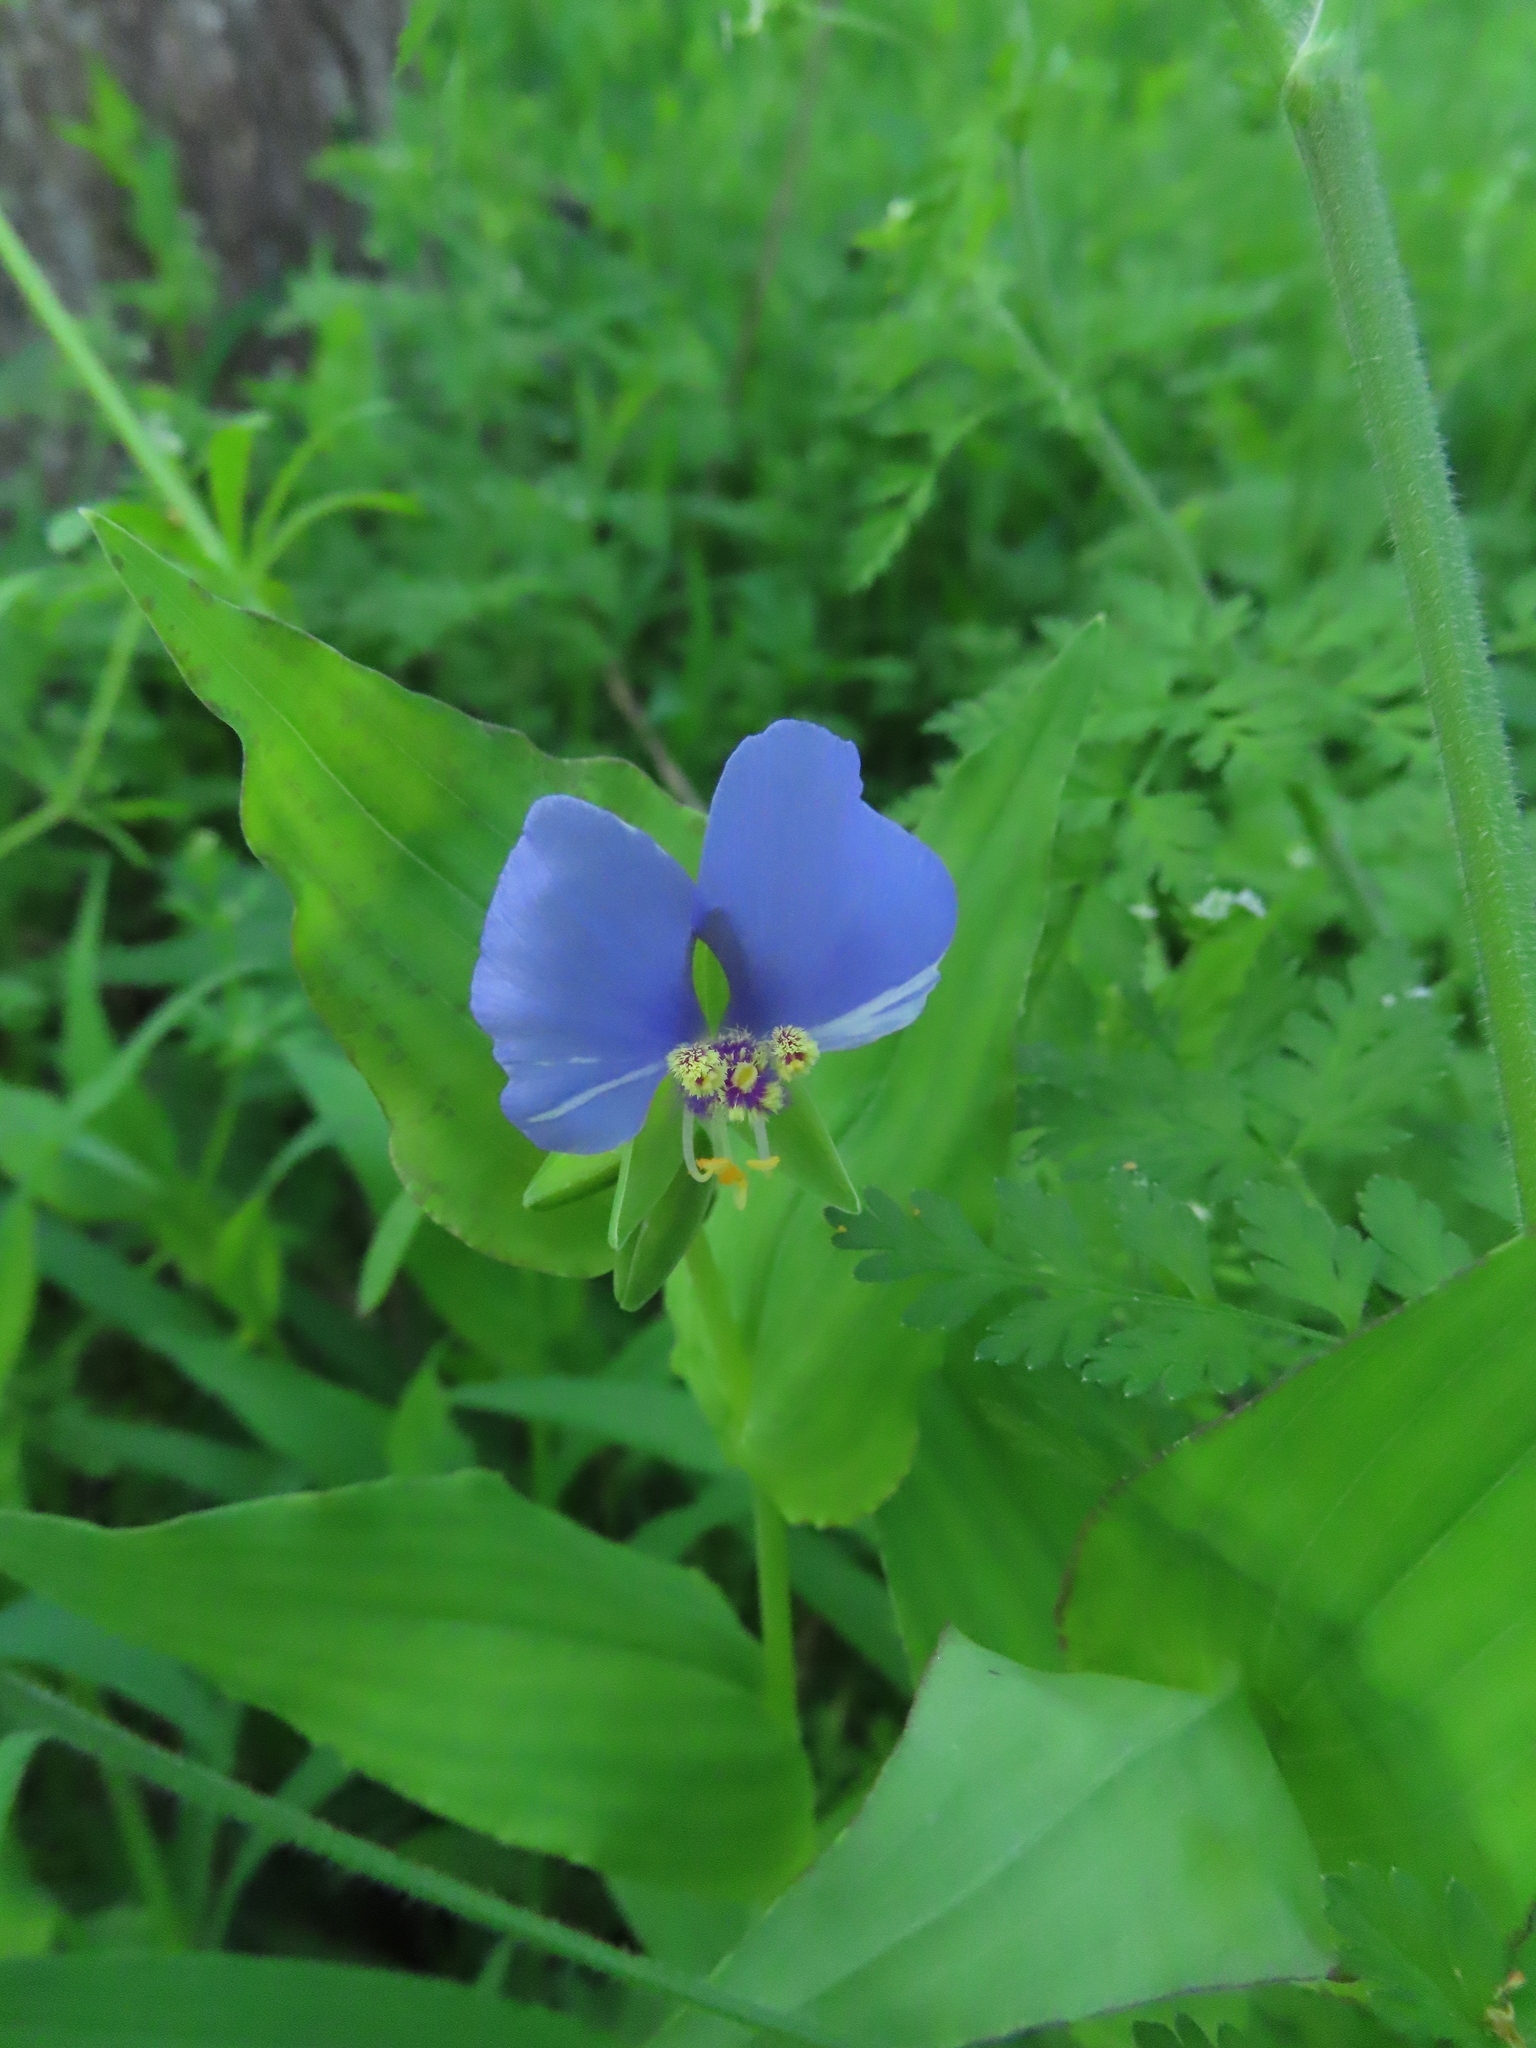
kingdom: Plantae
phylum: Tracheophyta
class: Liliopsida
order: Commelinales
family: Commelinaceae
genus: Tinantia
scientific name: Tinantia anomala
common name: False dayflower
